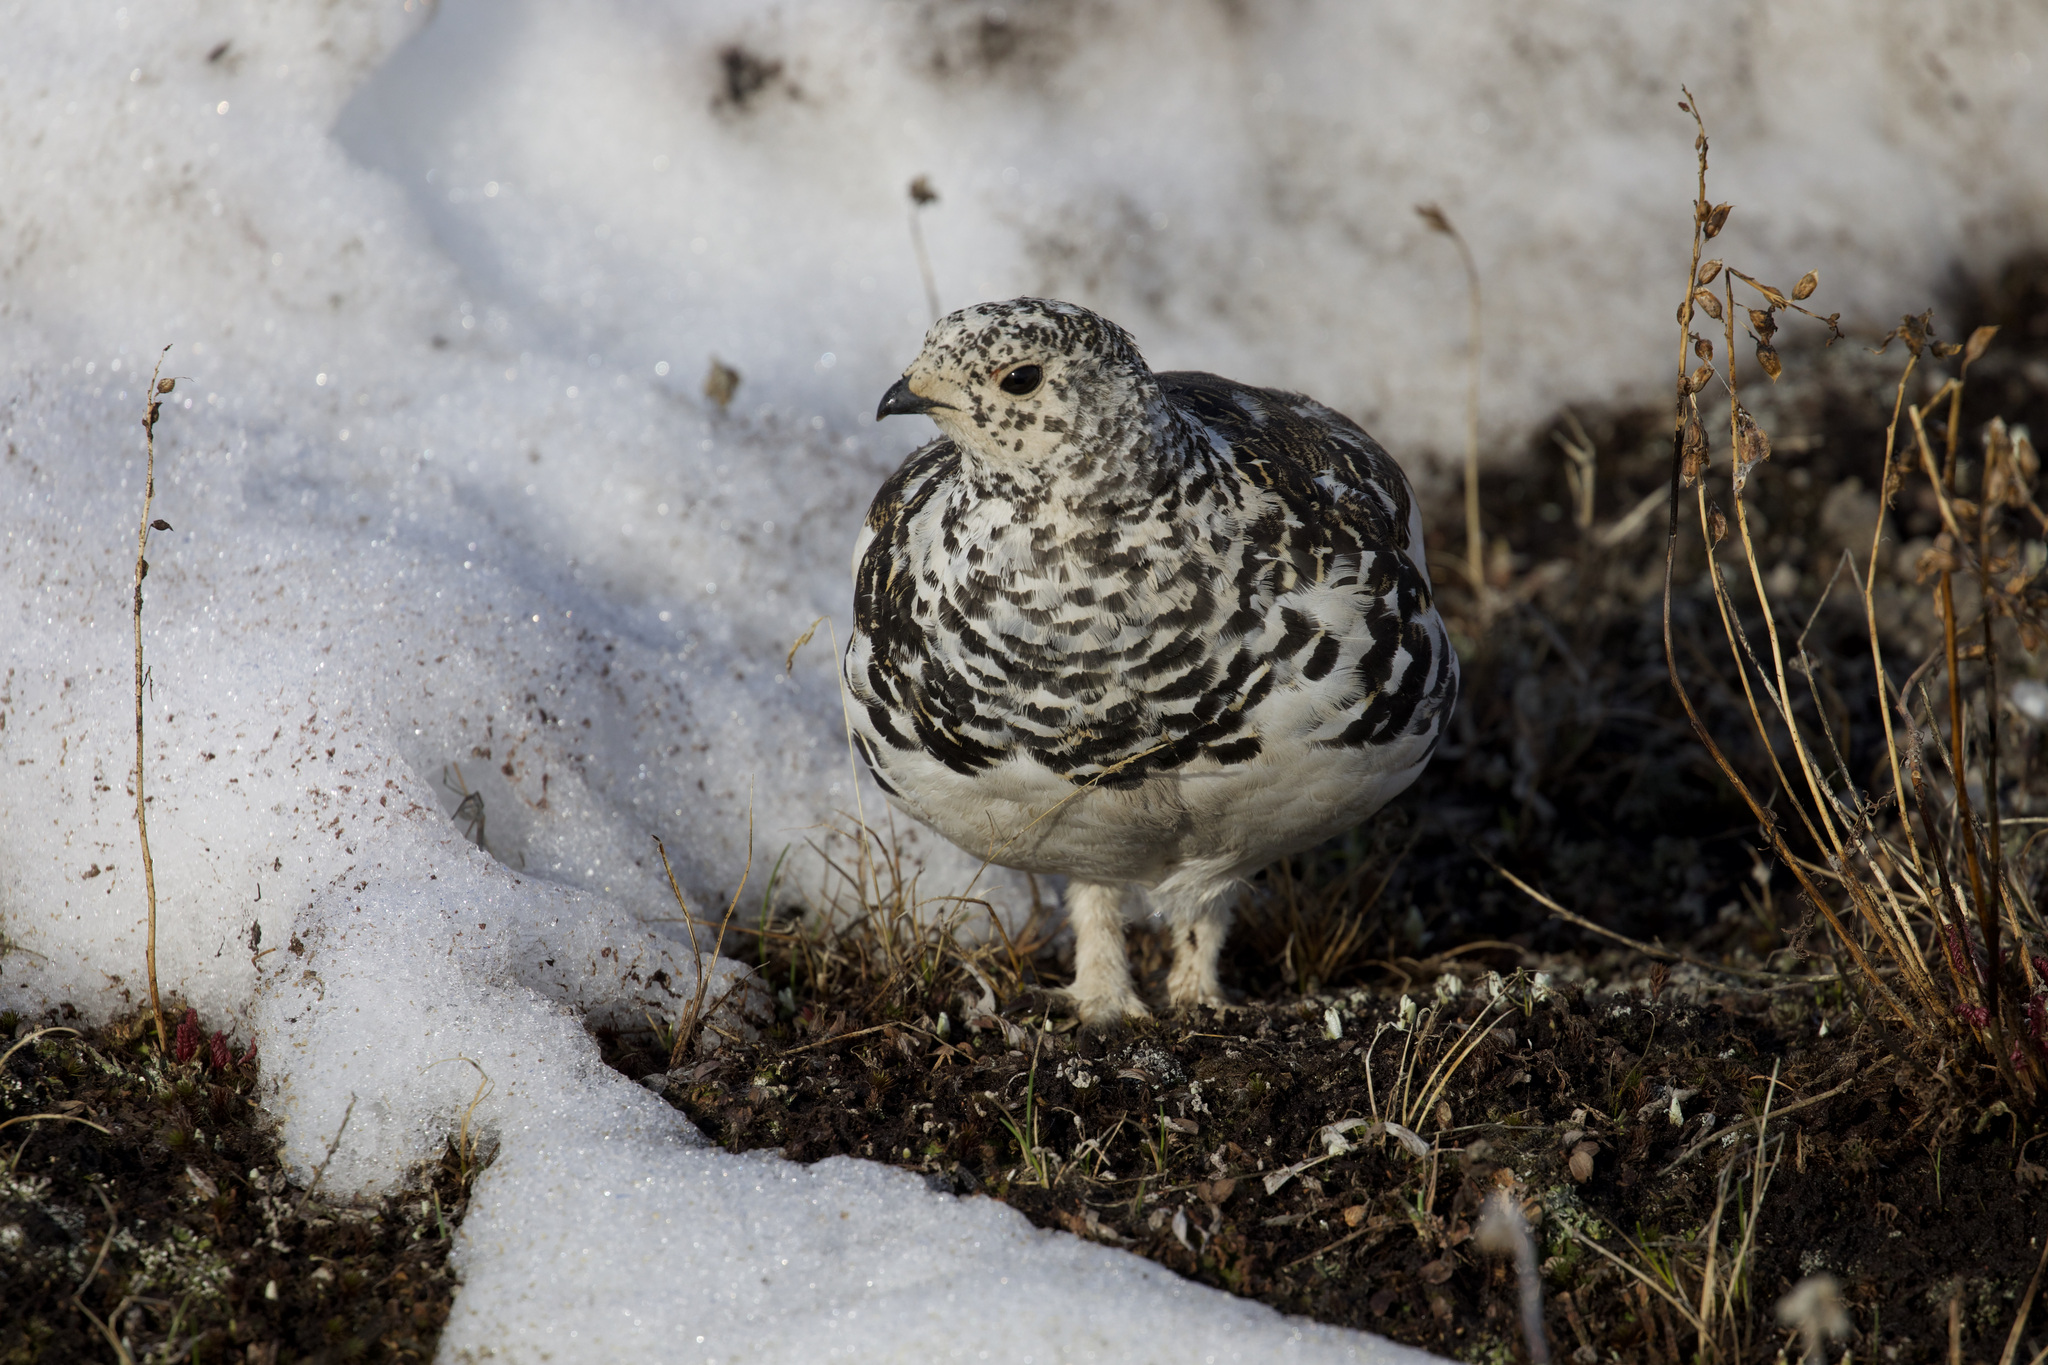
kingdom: Animalia
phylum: Chordata
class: Aves
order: Galliformes
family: Phasianidae
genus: Lagopus
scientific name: Lagopus leucura
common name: White-tailed ptarmigan
